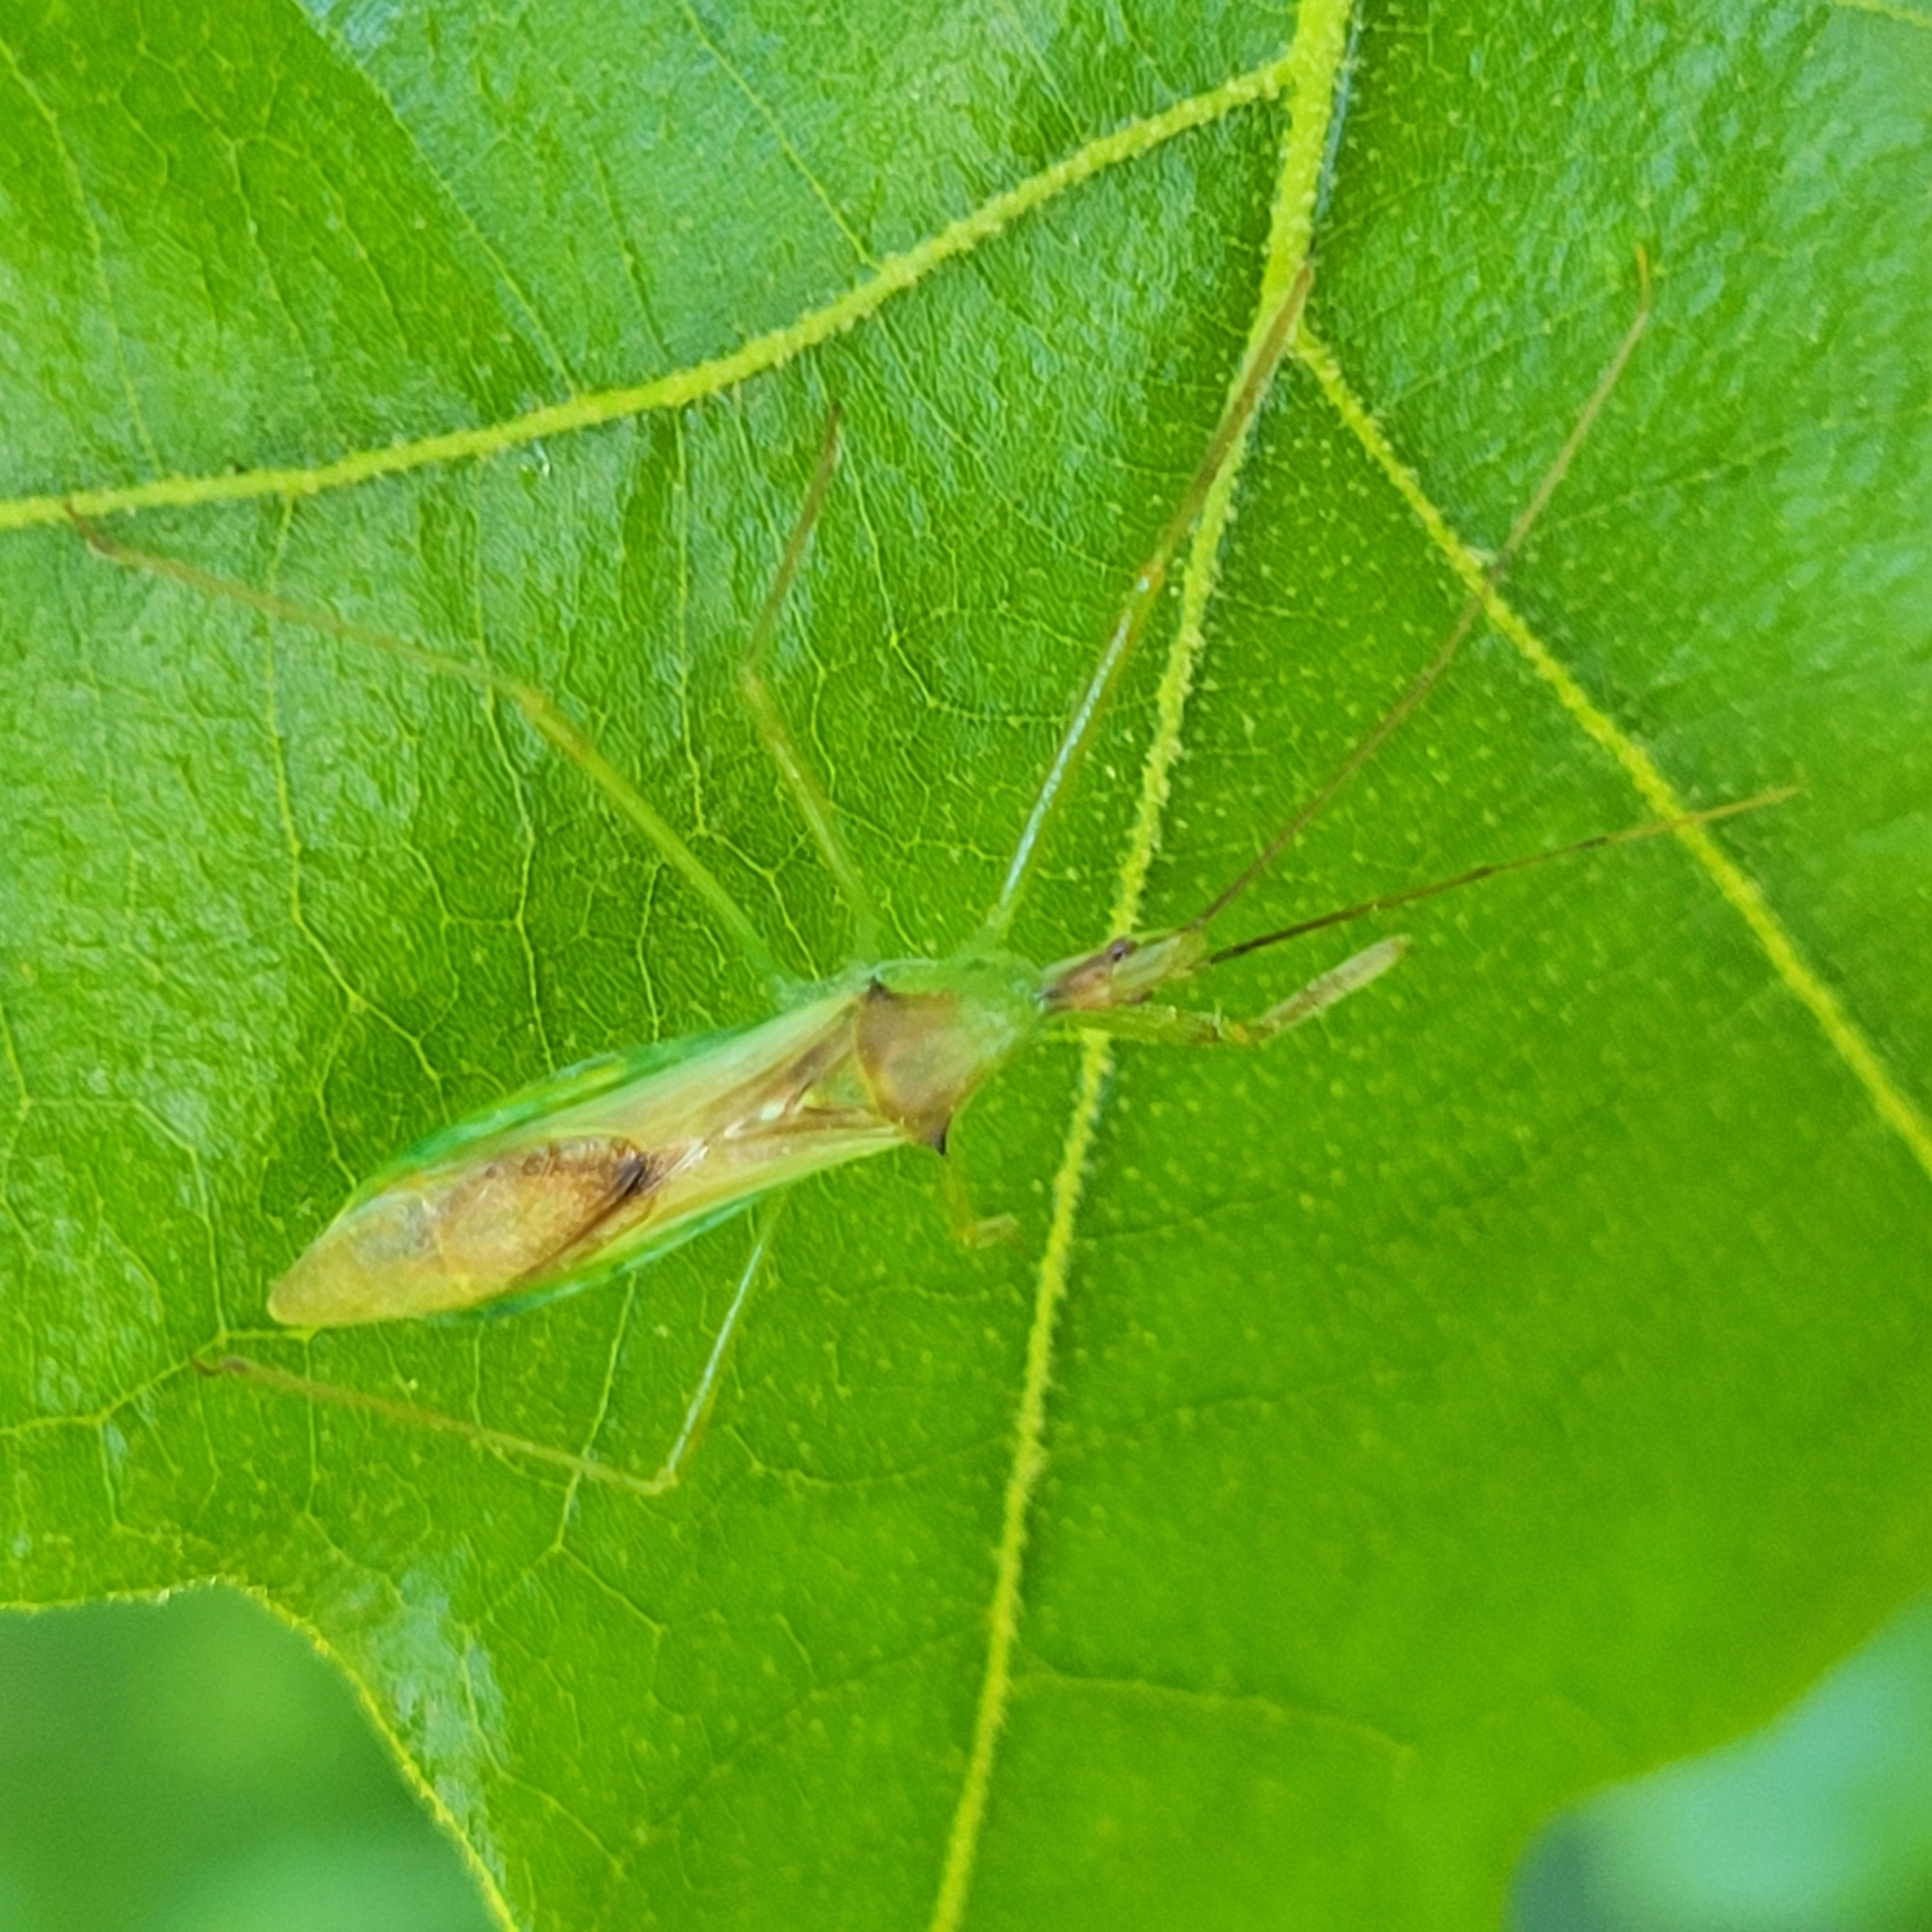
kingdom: Animalia
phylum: Arthropoda
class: Insecta
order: Hemiptera
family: Reduviidae
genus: Zelus
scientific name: Zelus luridus
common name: Pale green assassin bug
